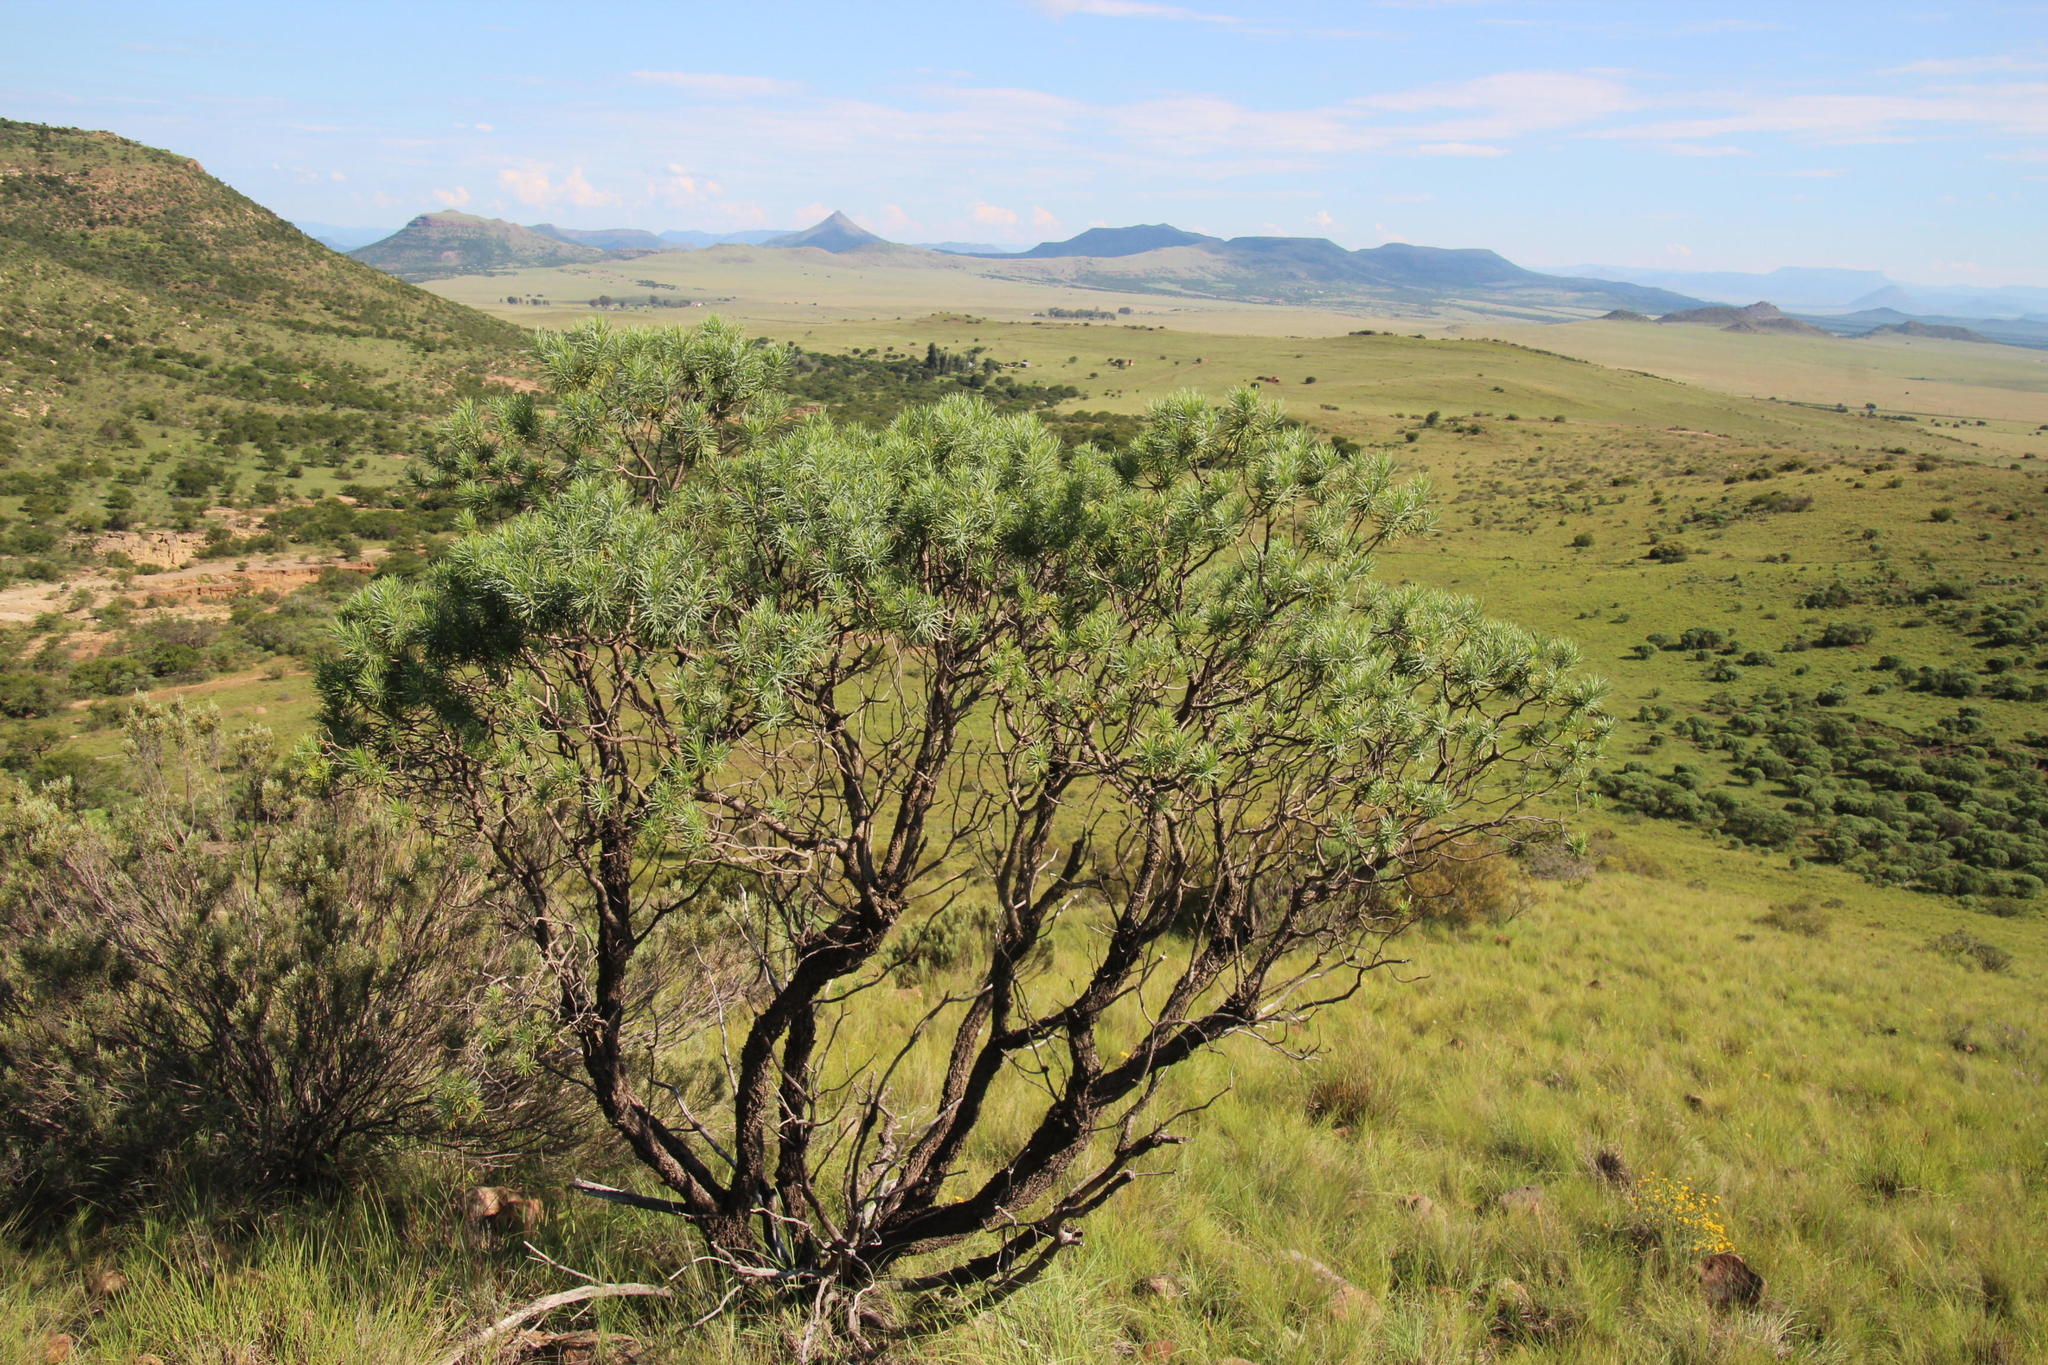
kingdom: Plantae
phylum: Tracheophyta
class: Magnoliopsida
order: Asterales
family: Asteraceae
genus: Euryops
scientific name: Euryops floribundus
